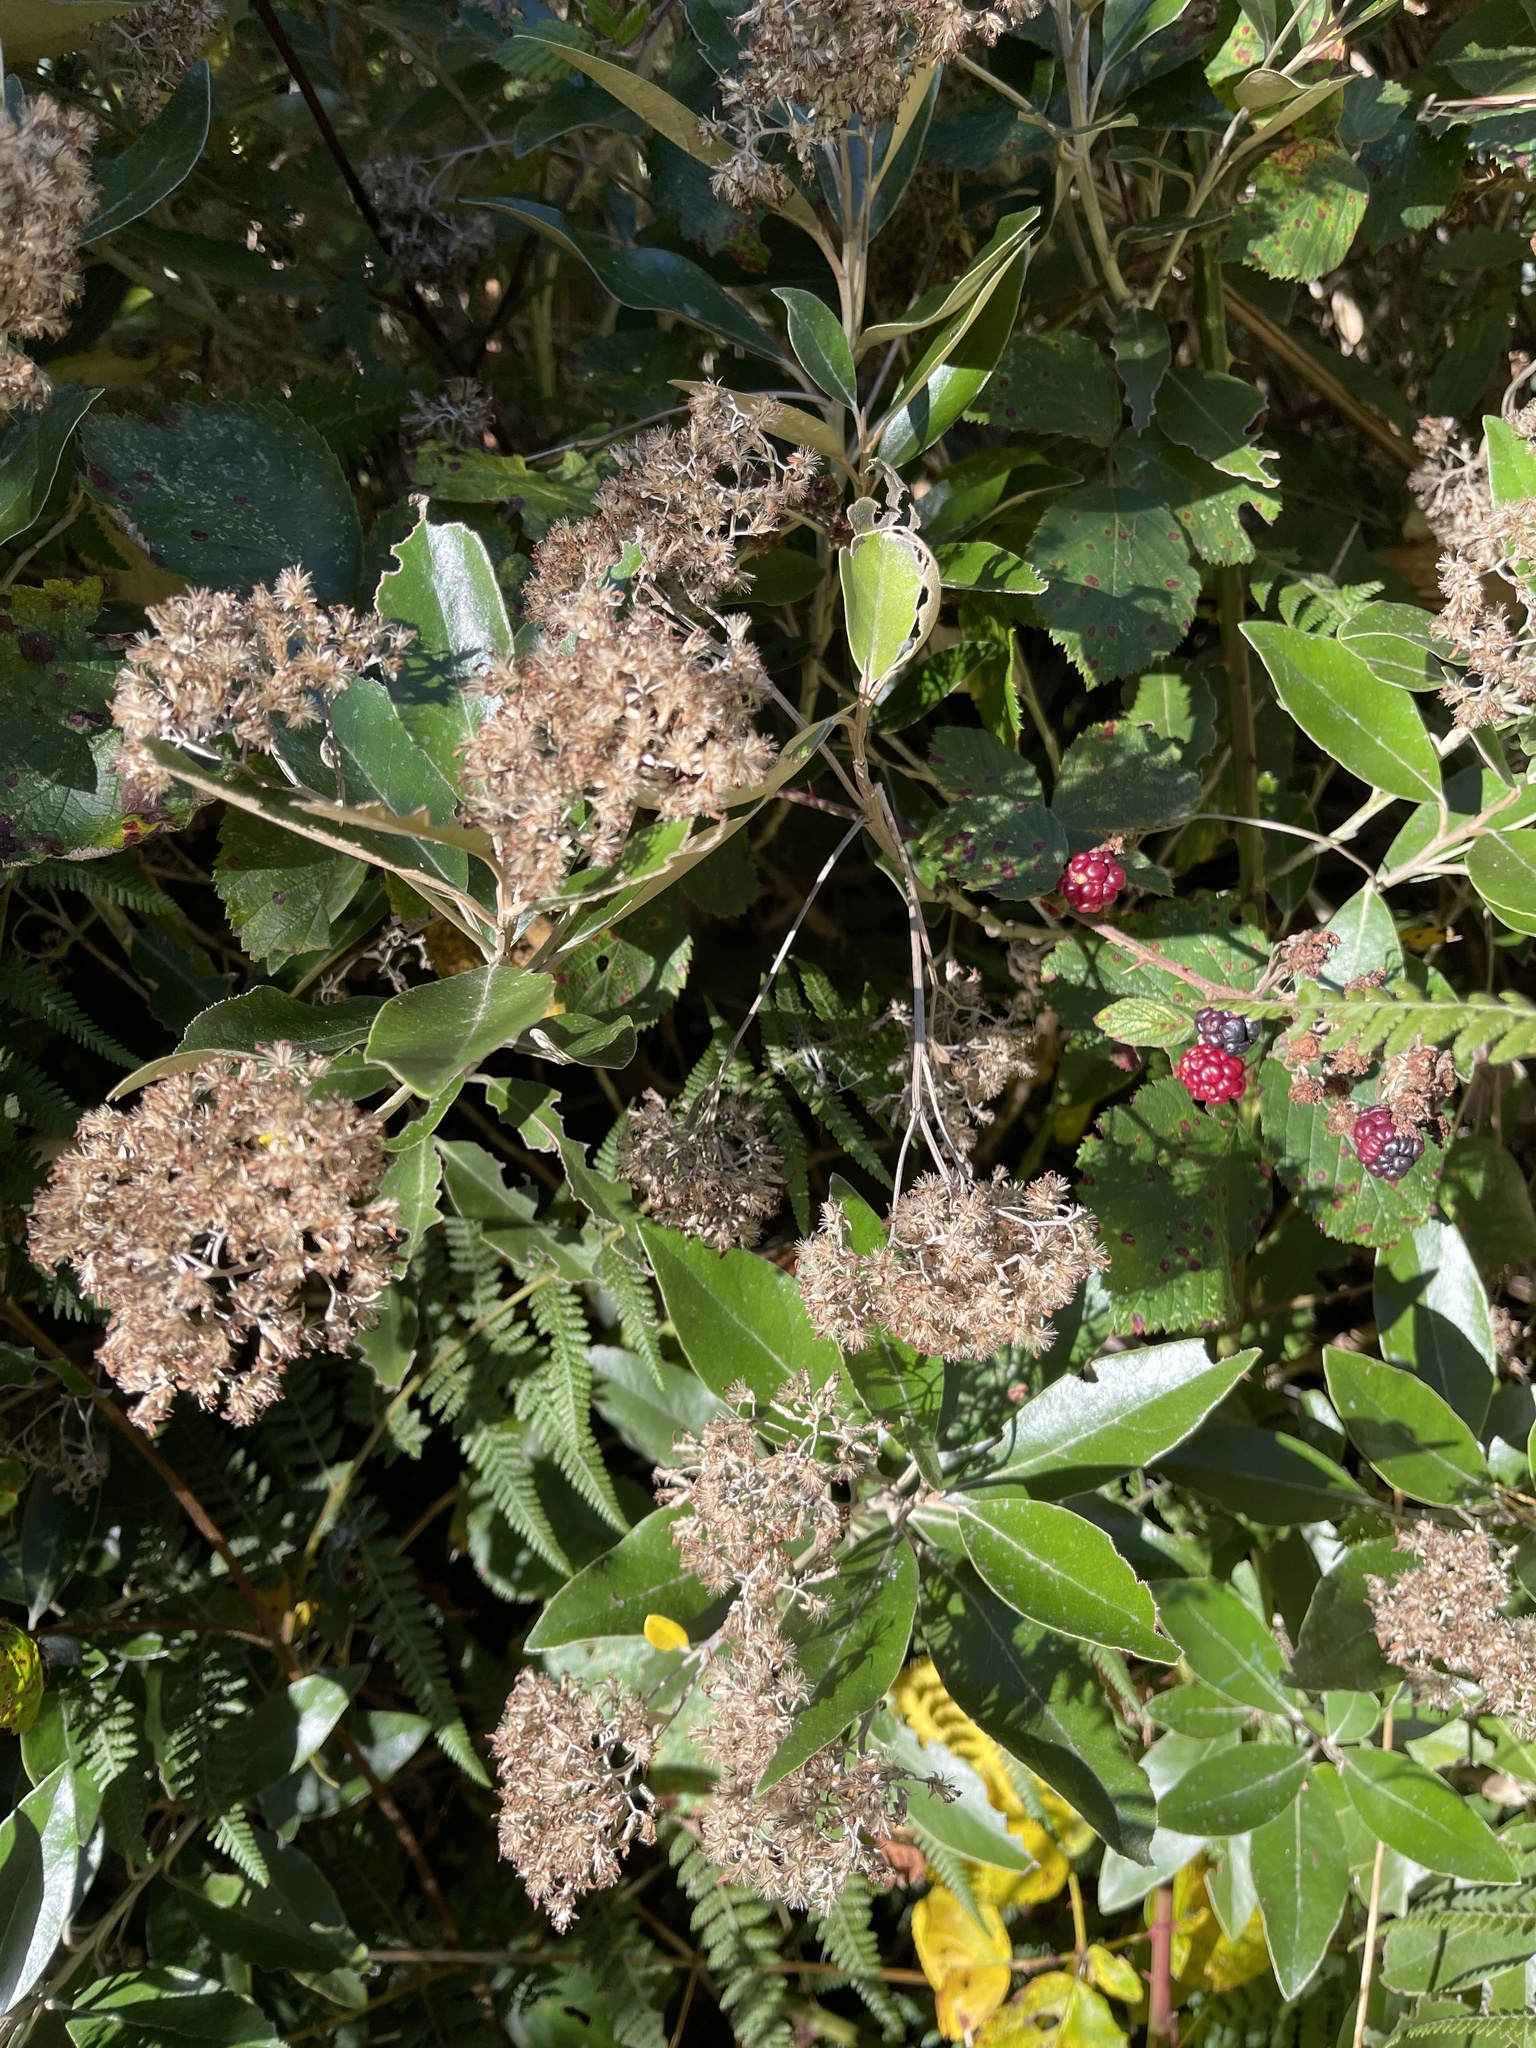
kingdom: Plantae
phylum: Tracheophyta
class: Magnoliopsida
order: Asterales
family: Asteraceae
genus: Olearia
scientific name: Olearia avicenniifolia
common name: Mangrove-leaf daisybush
